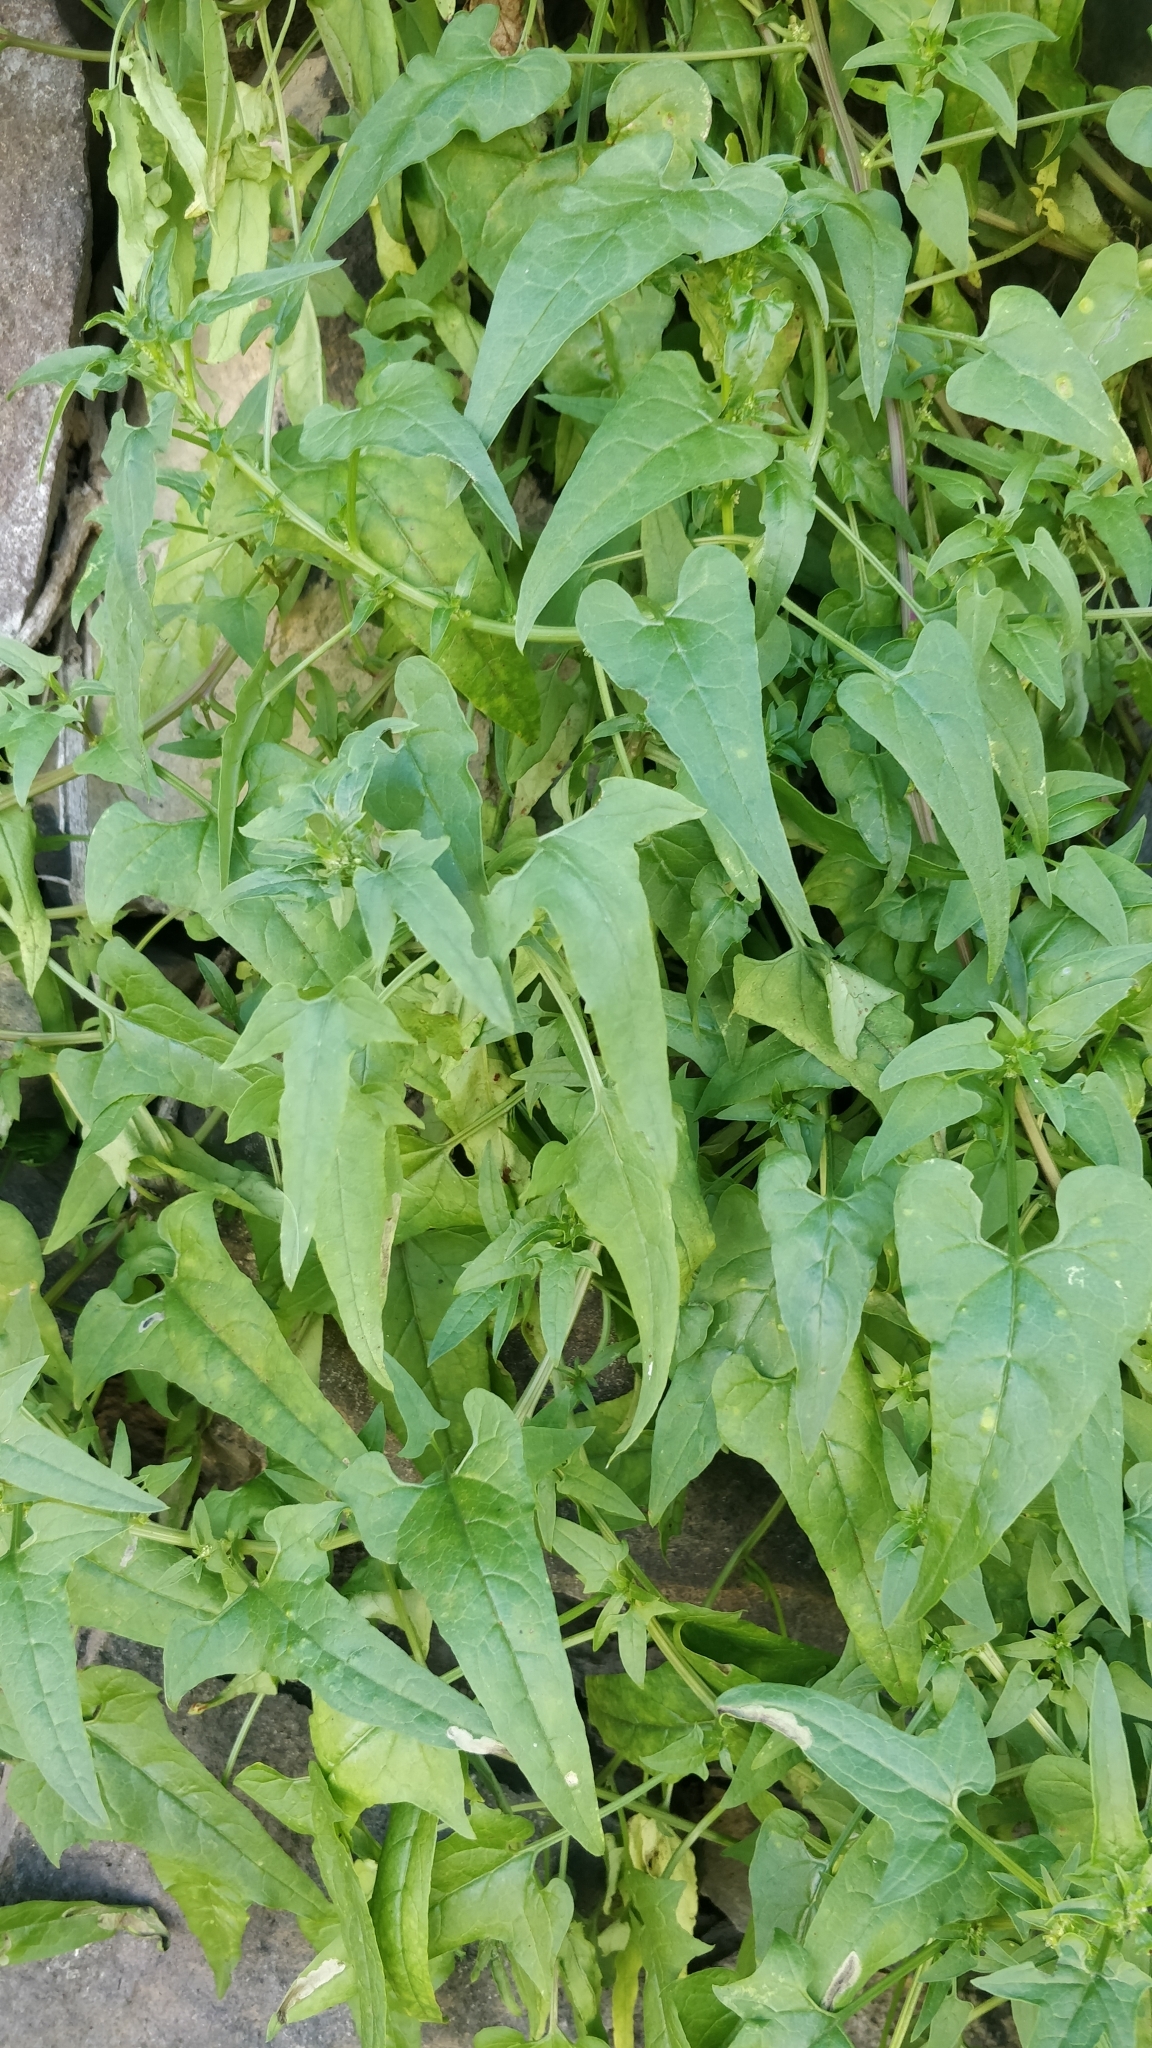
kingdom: Plantae
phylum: Tracheophyta
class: Magnoliopsida
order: Caryophyllales
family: Amaranthaceae
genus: Patellifolia
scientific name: Patellifolia procumbens
